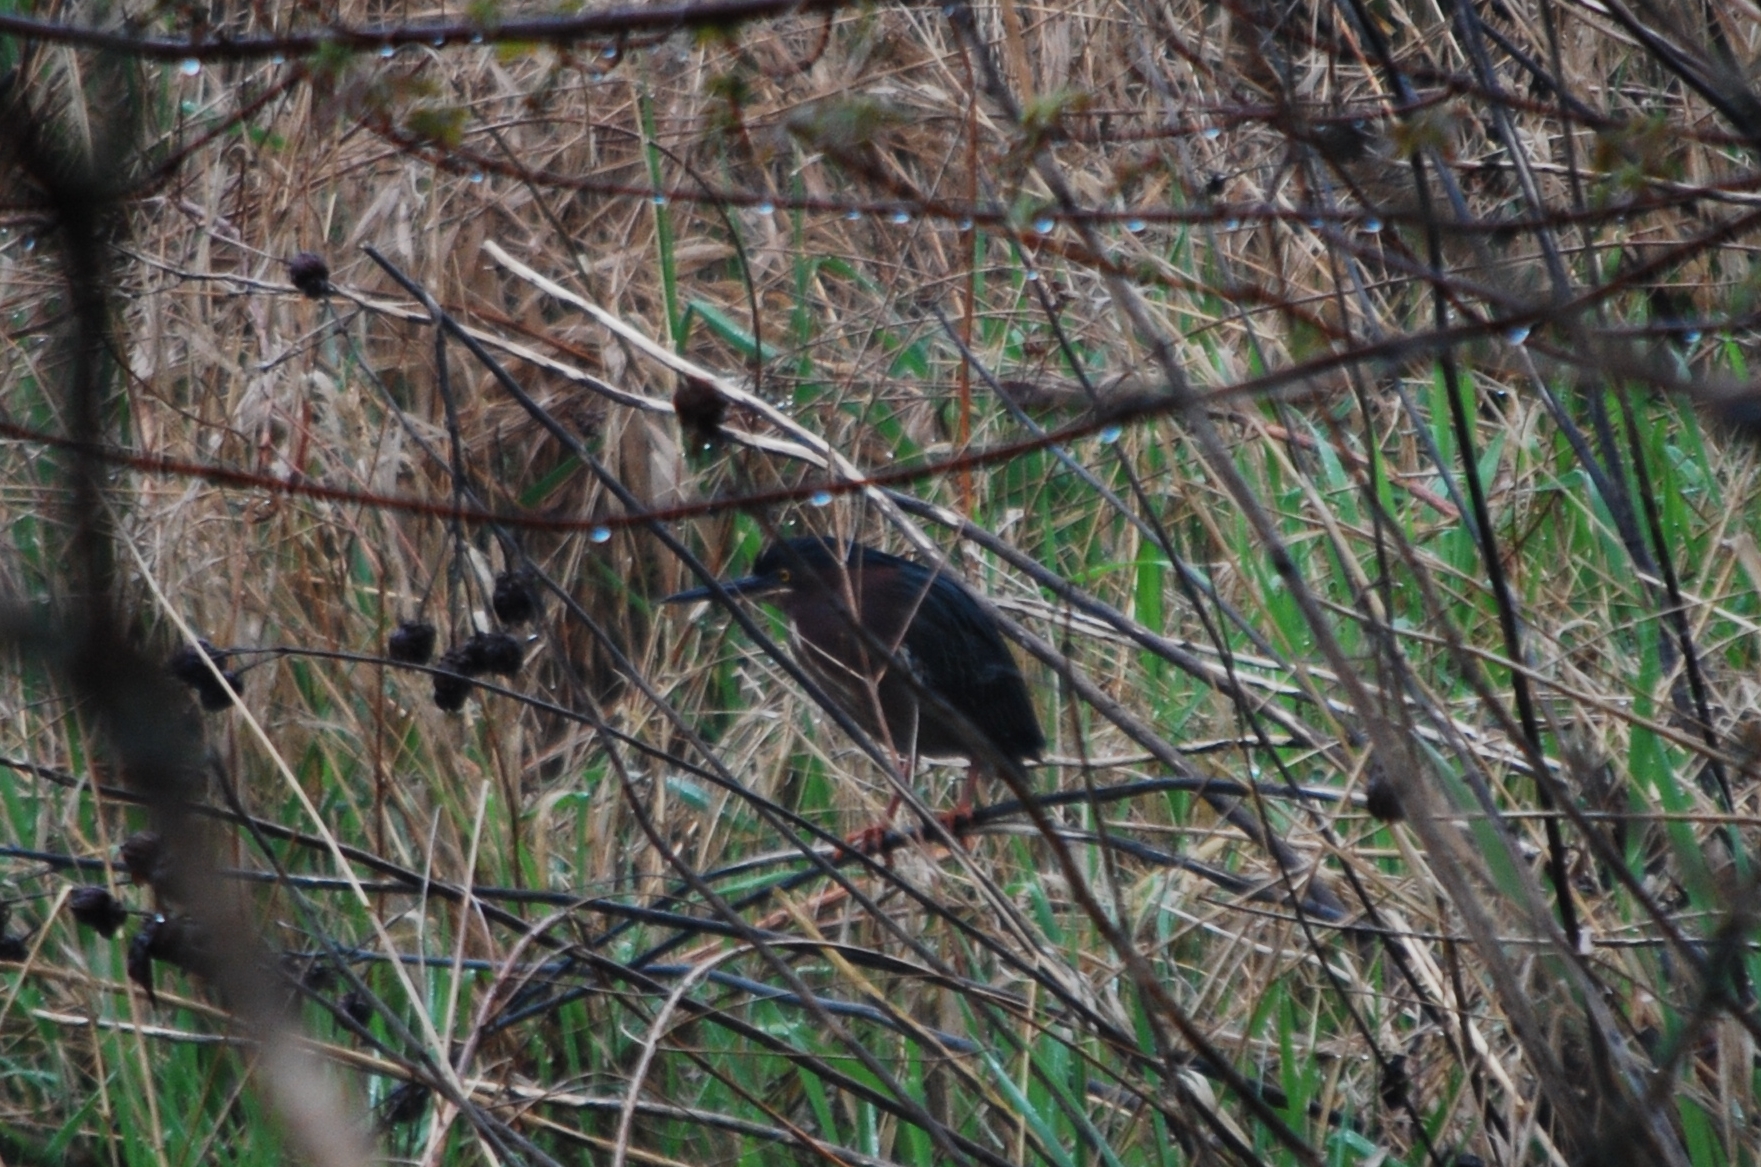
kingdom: Animalia
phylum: Chordata
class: Aves
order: Pelecaniformes
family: Ardeidae
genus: Butorides
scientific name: Butorides virescens
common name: Green heron
